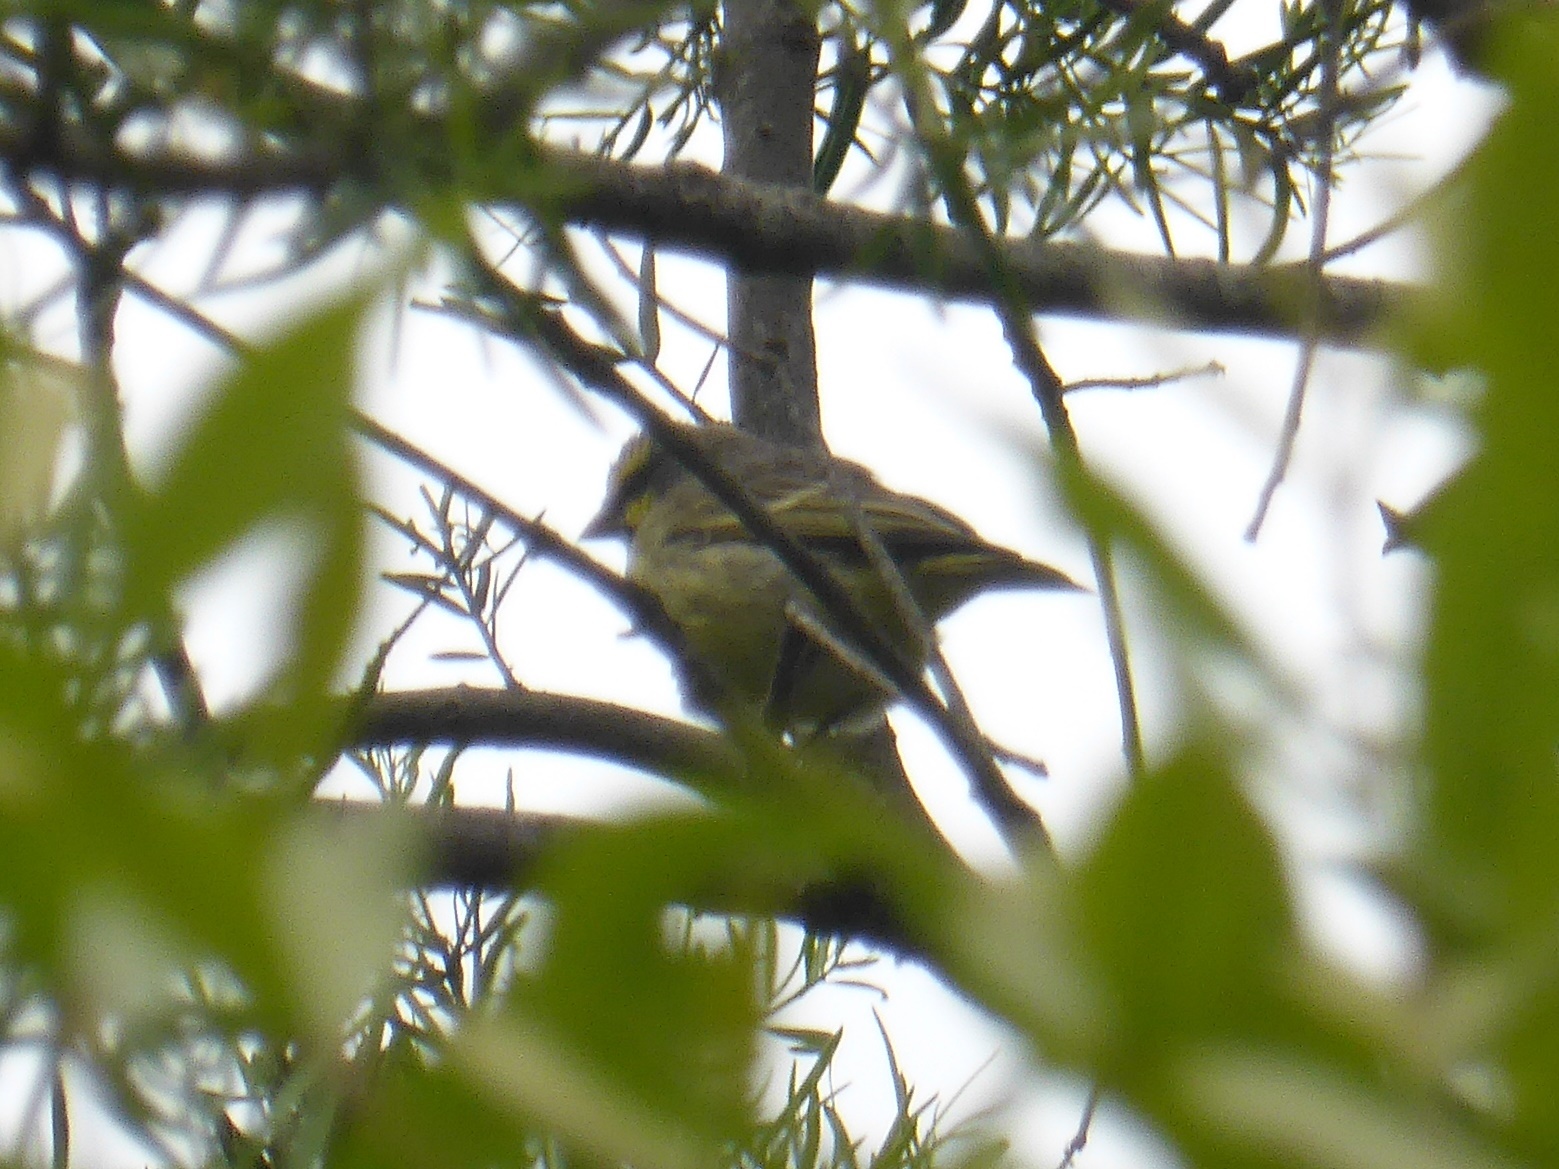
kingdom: Animalia
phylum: Chordata
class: Aves
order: Passeriformes
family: Fringillidae
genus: Crithagra
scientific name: Crithagra mozambica
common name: Yellow-fronted canary
